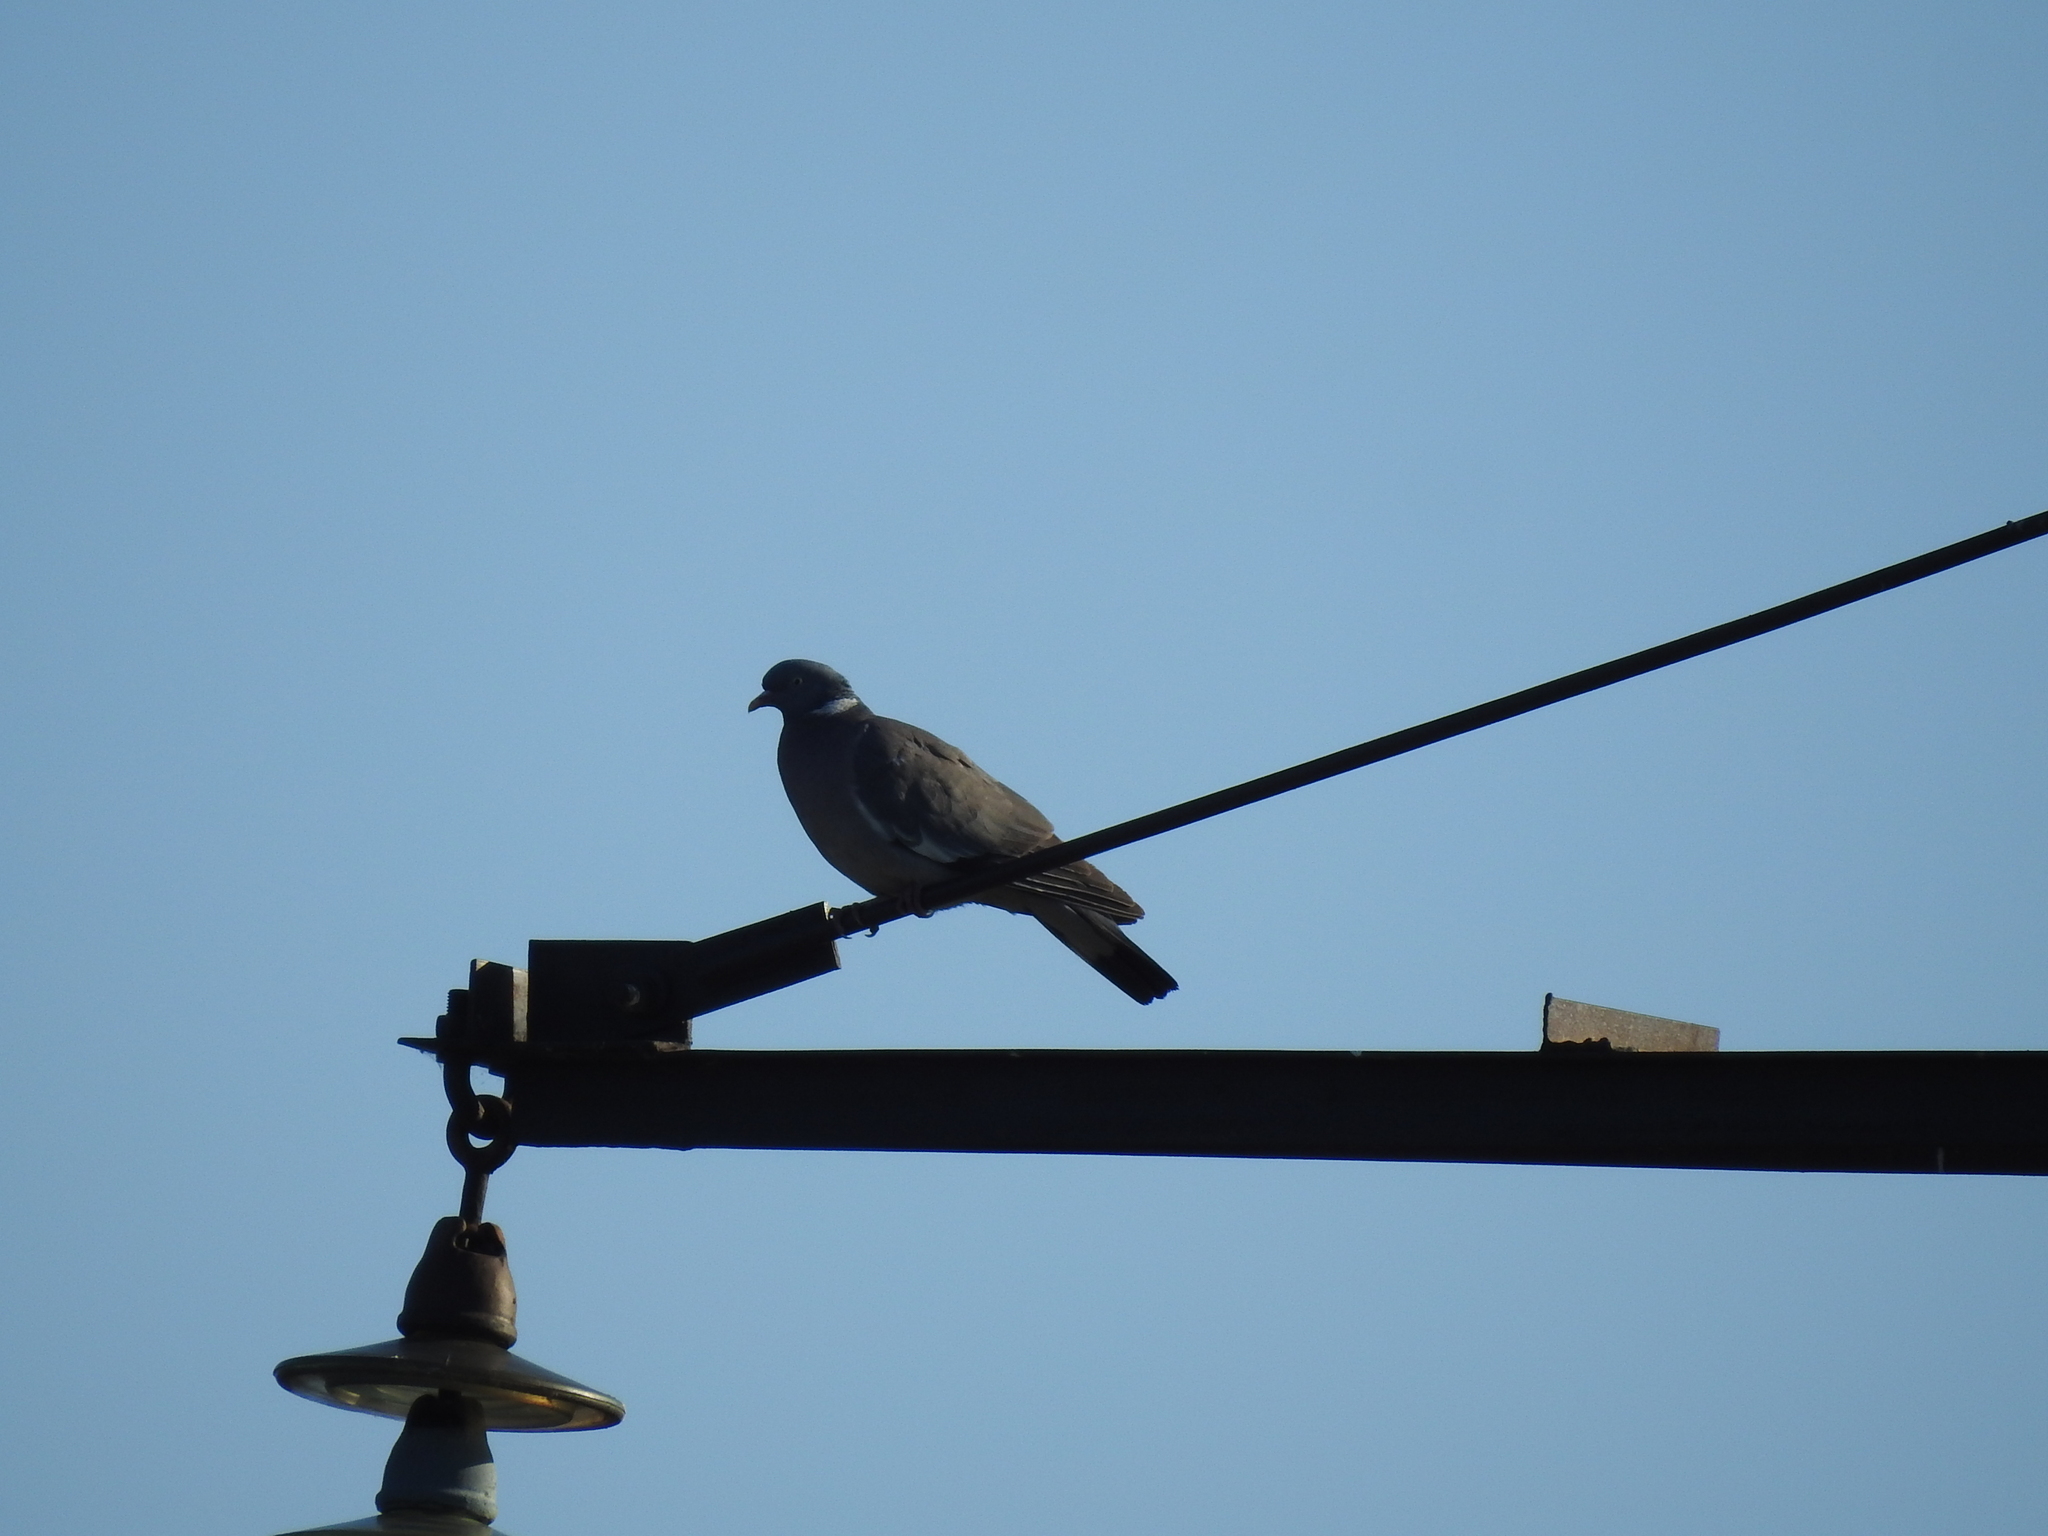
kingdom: Animalia
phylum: Chordata
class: Aves
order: Columbiformes
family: Columbidae
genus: Columba
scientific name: Columba palumbus
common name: Common wood pigeon
